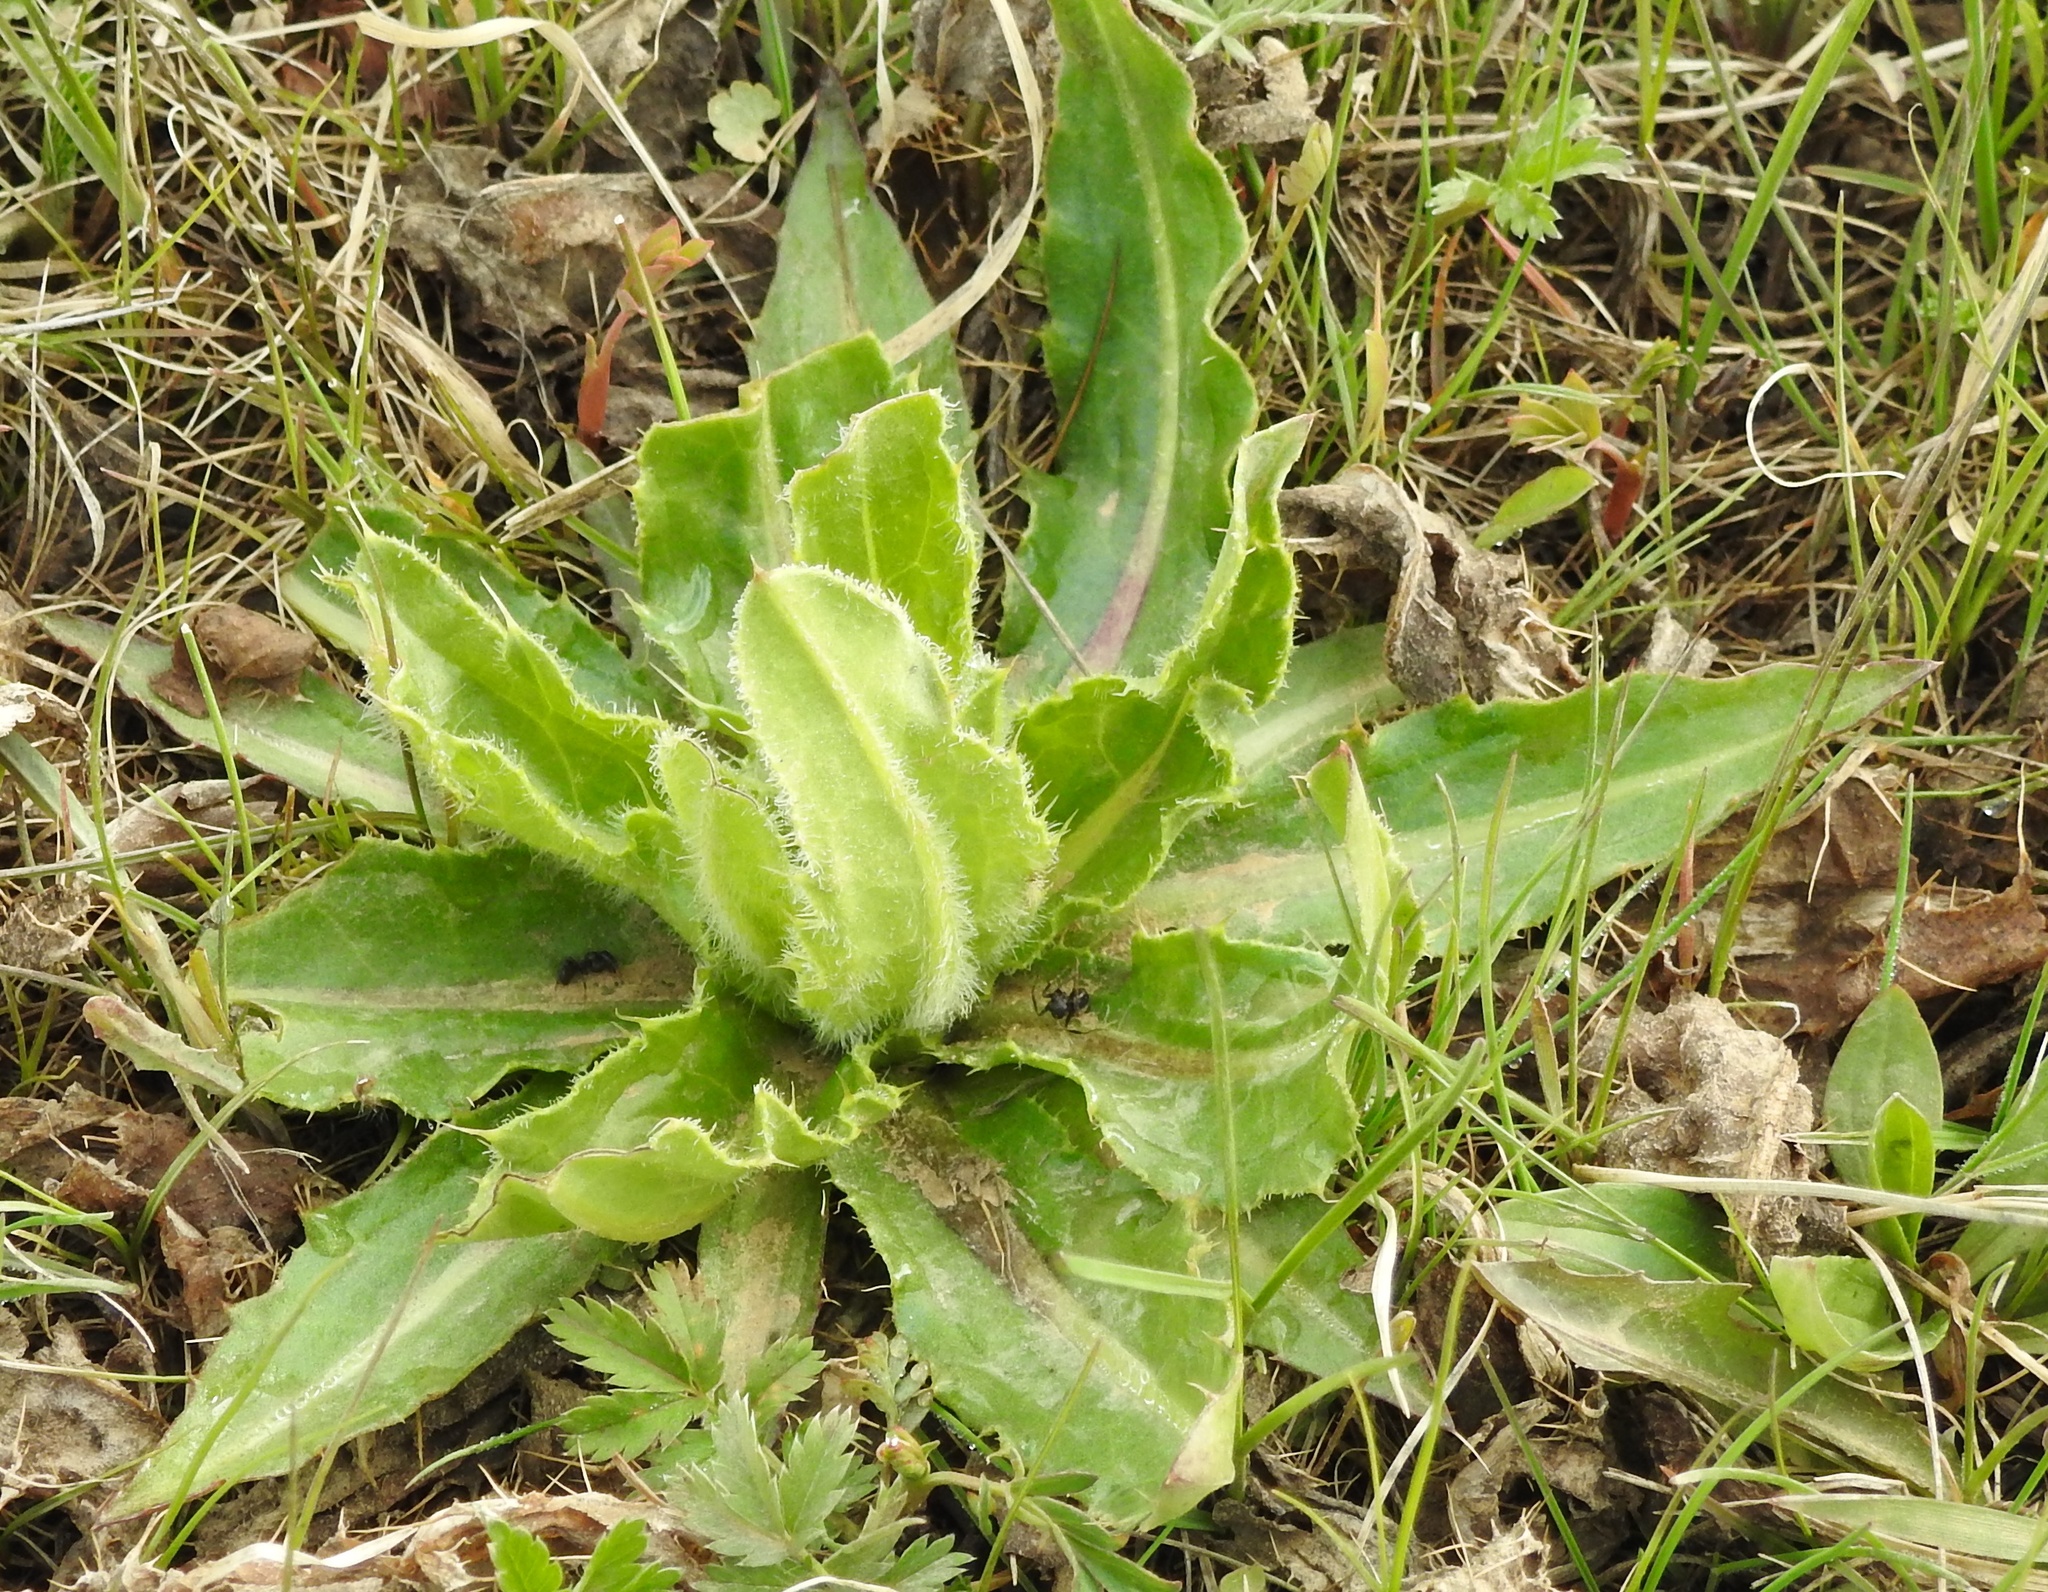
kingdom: Plantae
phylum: Tracheophyta
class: Magnoliopsida
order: Asterales
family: Asteraceae
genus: Cirsium
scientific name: Cirsium esculentum
